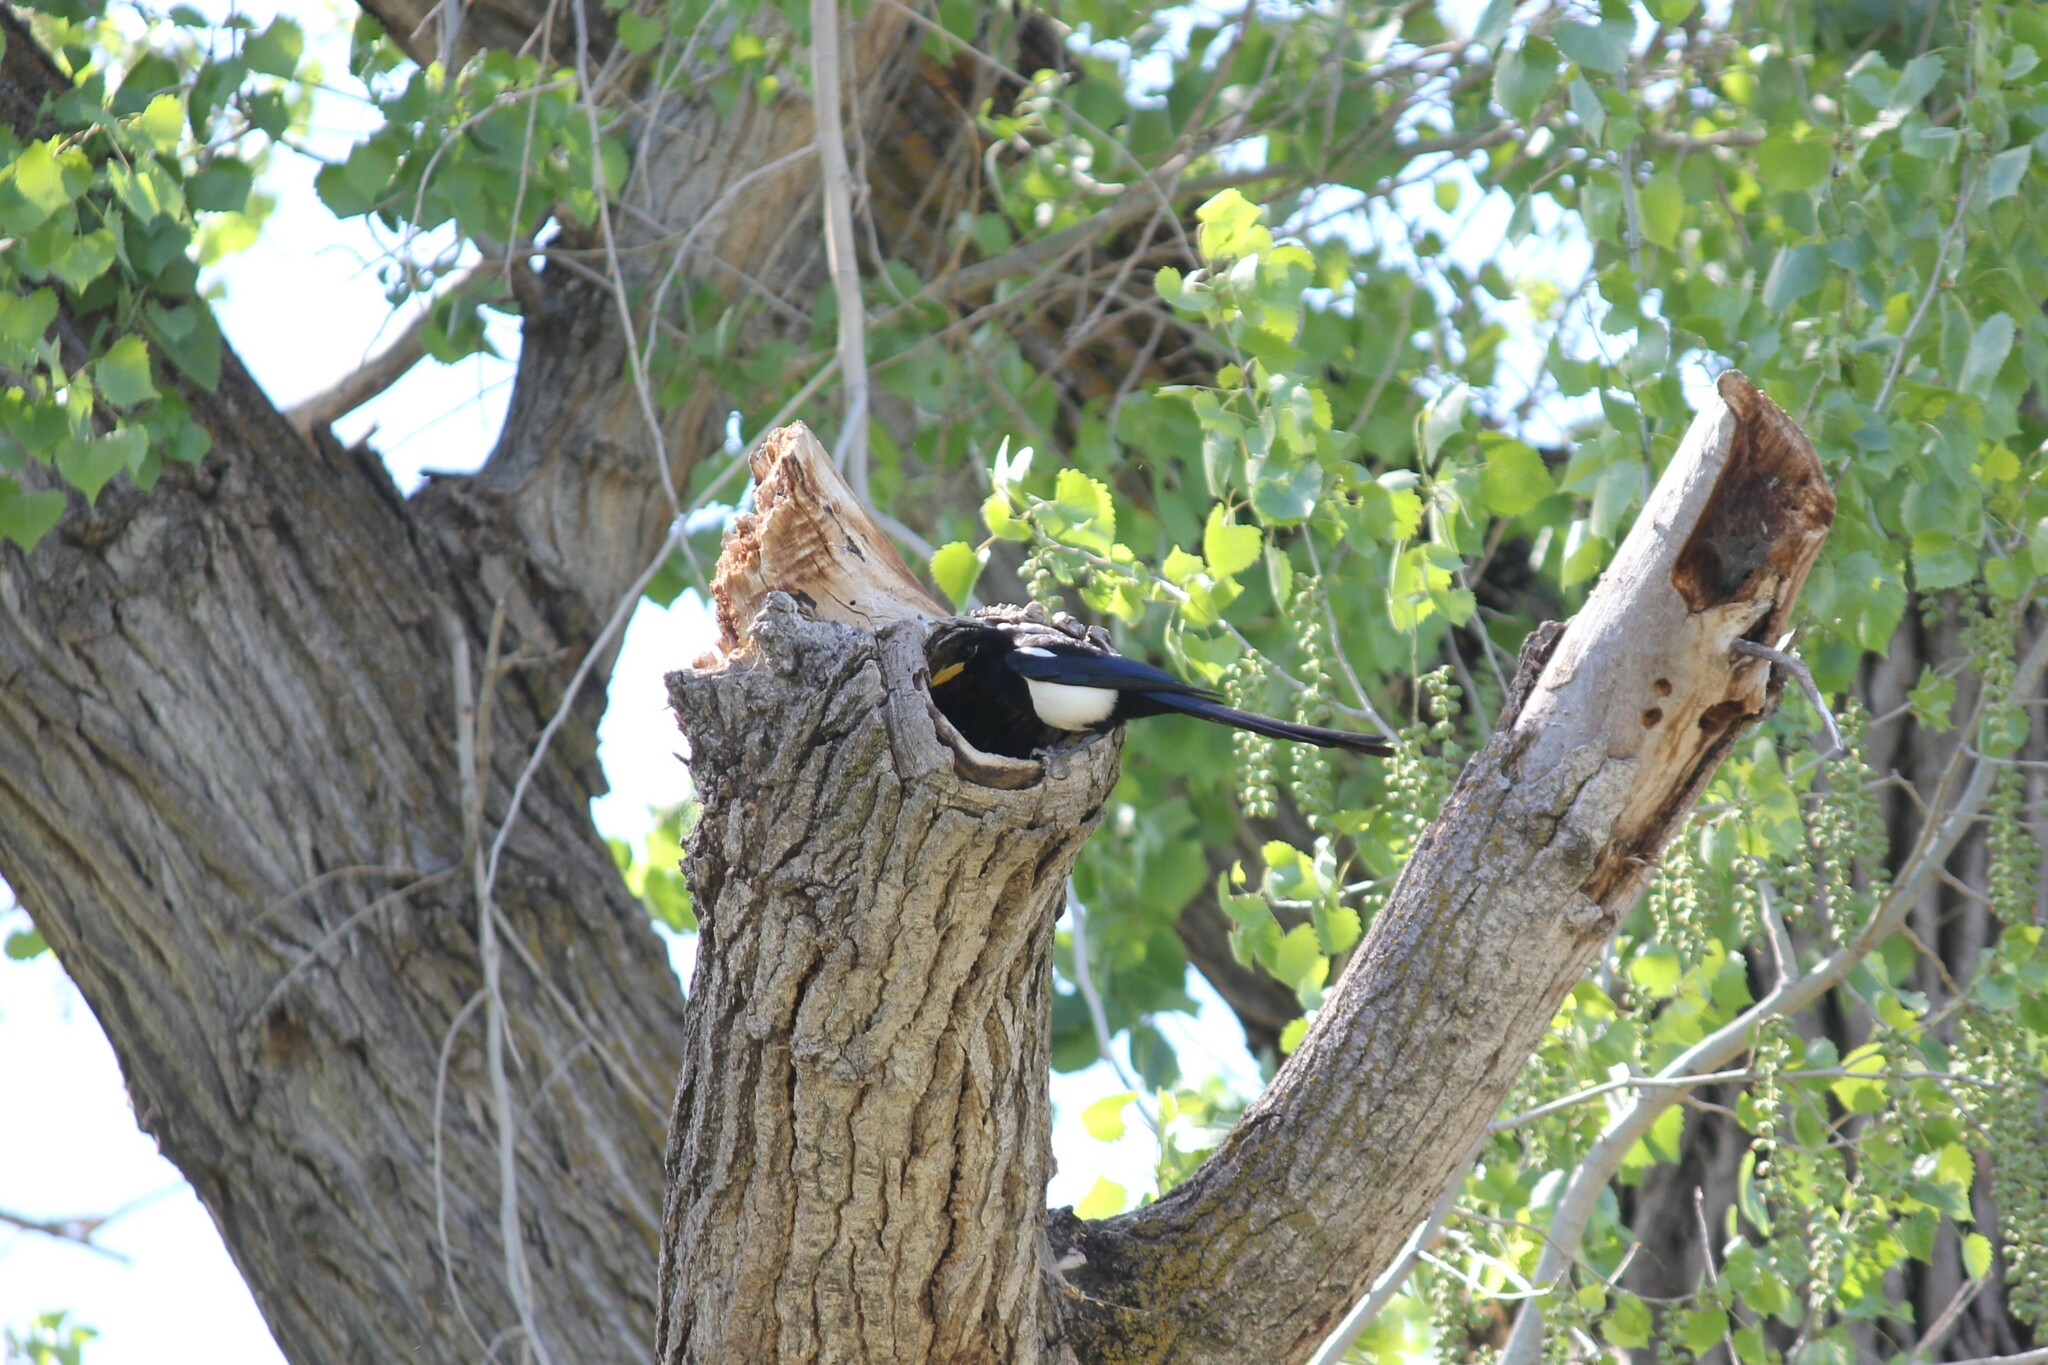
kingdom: Animalia
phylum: Chordata
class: Aves
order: Passeriformes
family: Corvidae
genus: Pica
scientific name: Pica nuttalli
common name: Yellow-billed magpie
